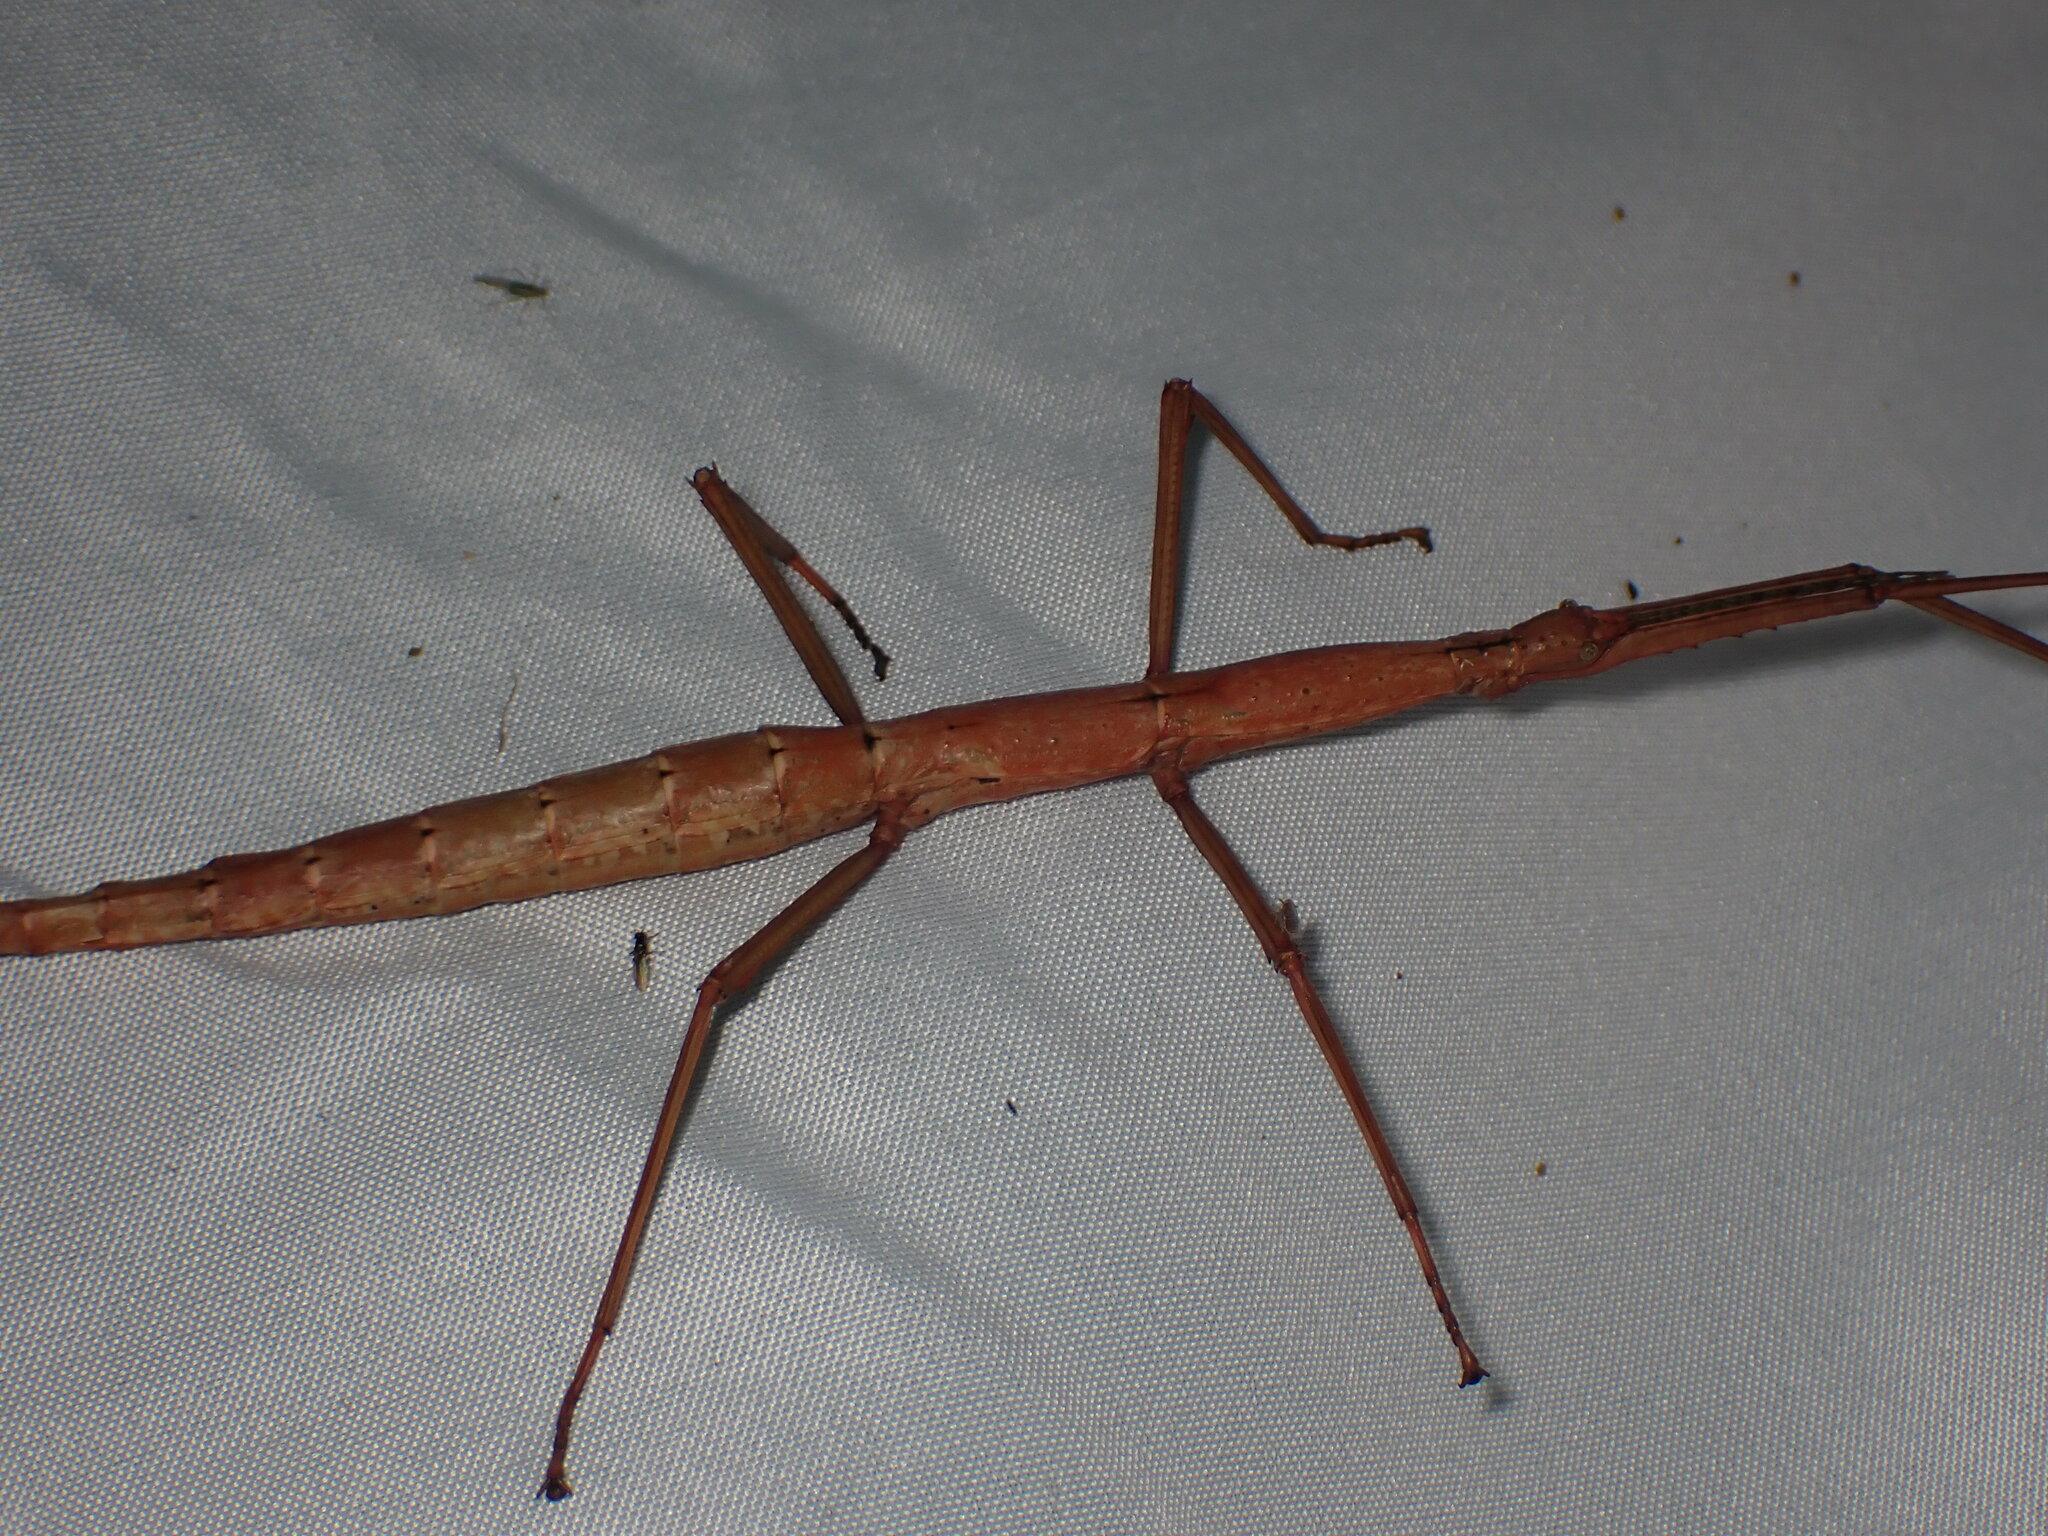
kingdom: Animalia
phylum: Arthropoda
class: Insecta
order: Phasmida
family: Phasmatidae
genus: Acanthoxyla
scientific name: Acanthoxyla inermis
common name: Unarmed stick insect
